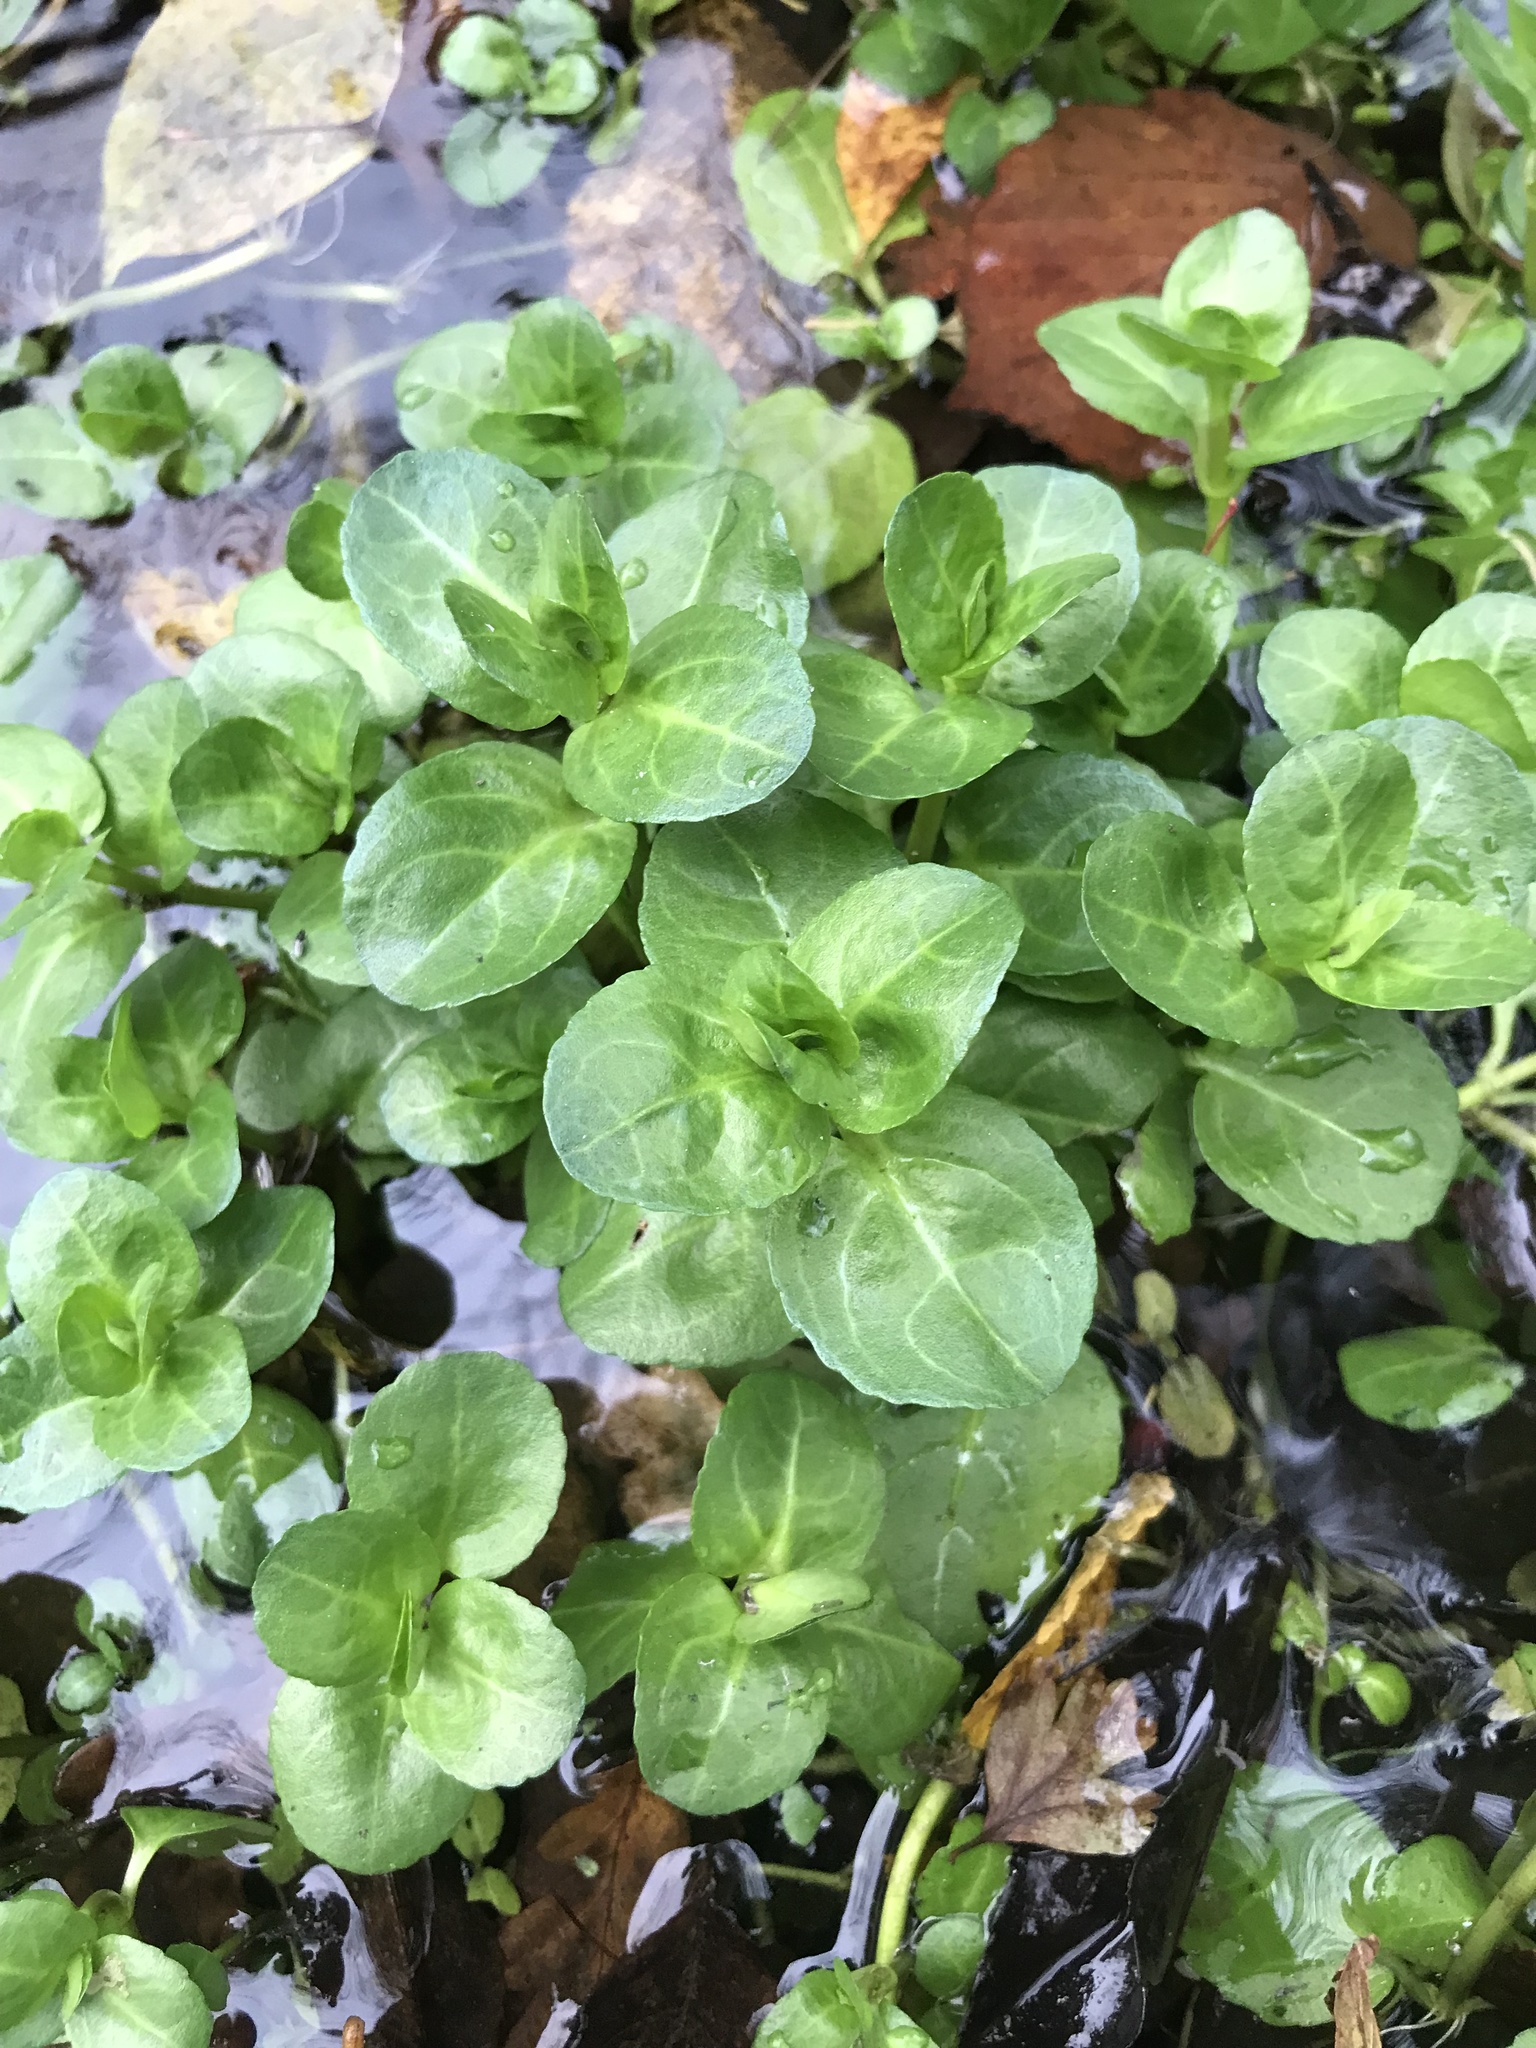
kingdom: Plantae
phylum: Tracheophyta
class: Magnoliopsida
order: Lamiales
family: Plantaginaceae
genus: Veronica
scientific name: Veronica beccabunga
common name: Brooklime
